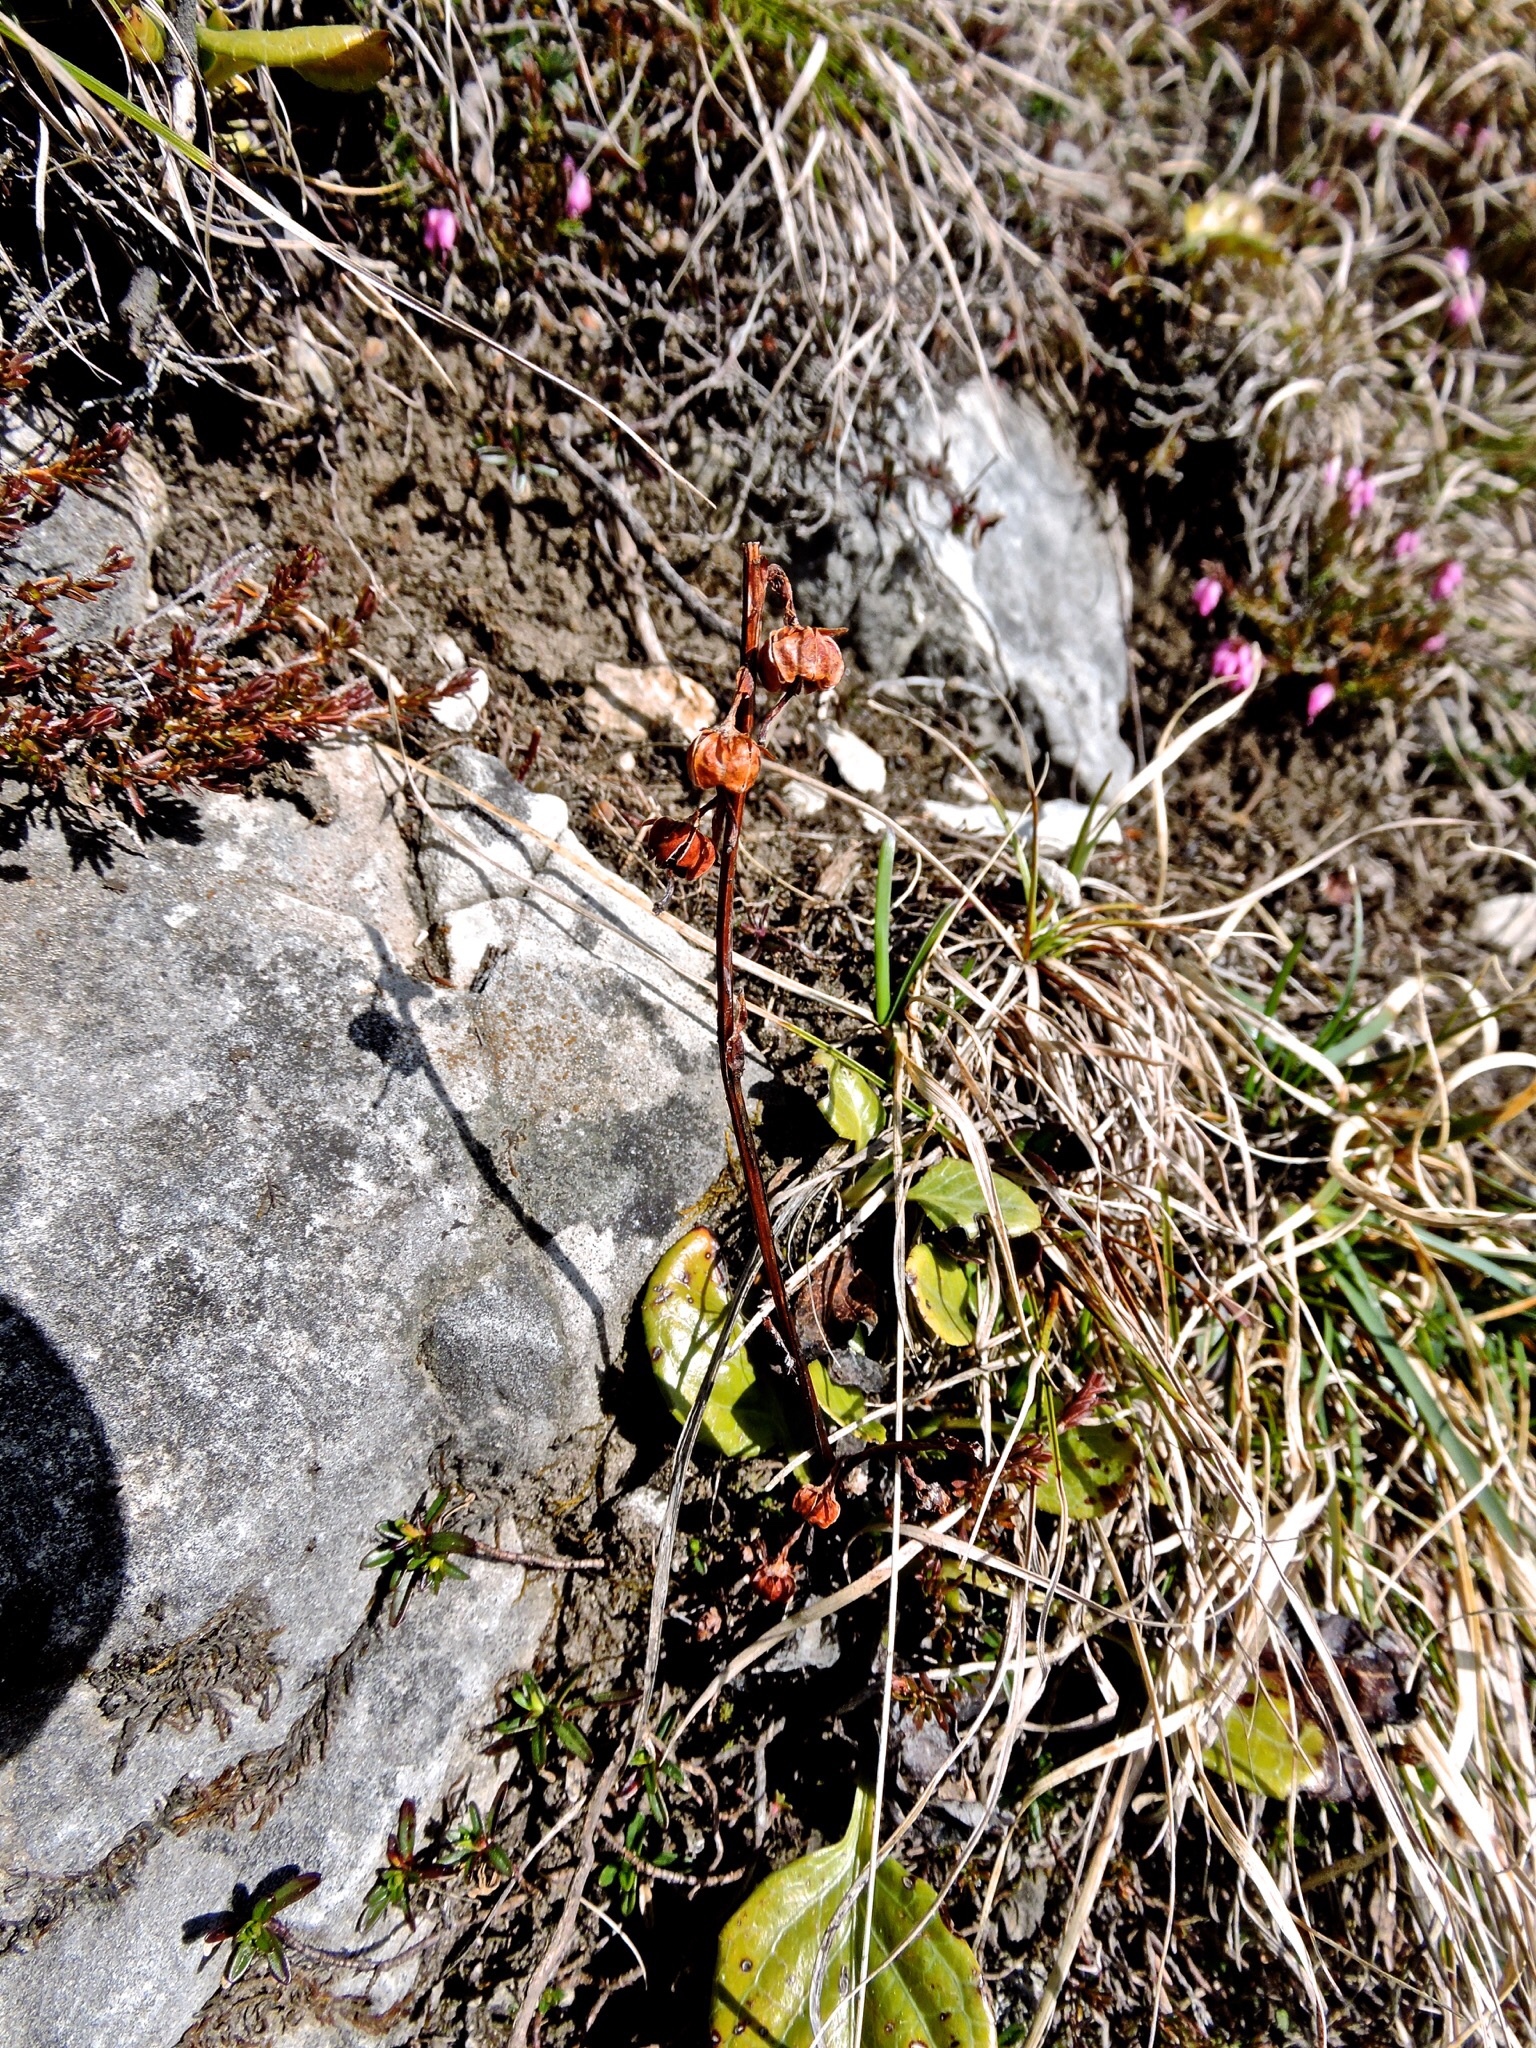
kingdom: Plantae
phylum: Tracheophyta
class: Magnoliopsida
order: Ericales
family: Ericaceae
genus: Pyrola
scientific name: Pyrola rotundifolia
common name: Round-leaved wintergreen
